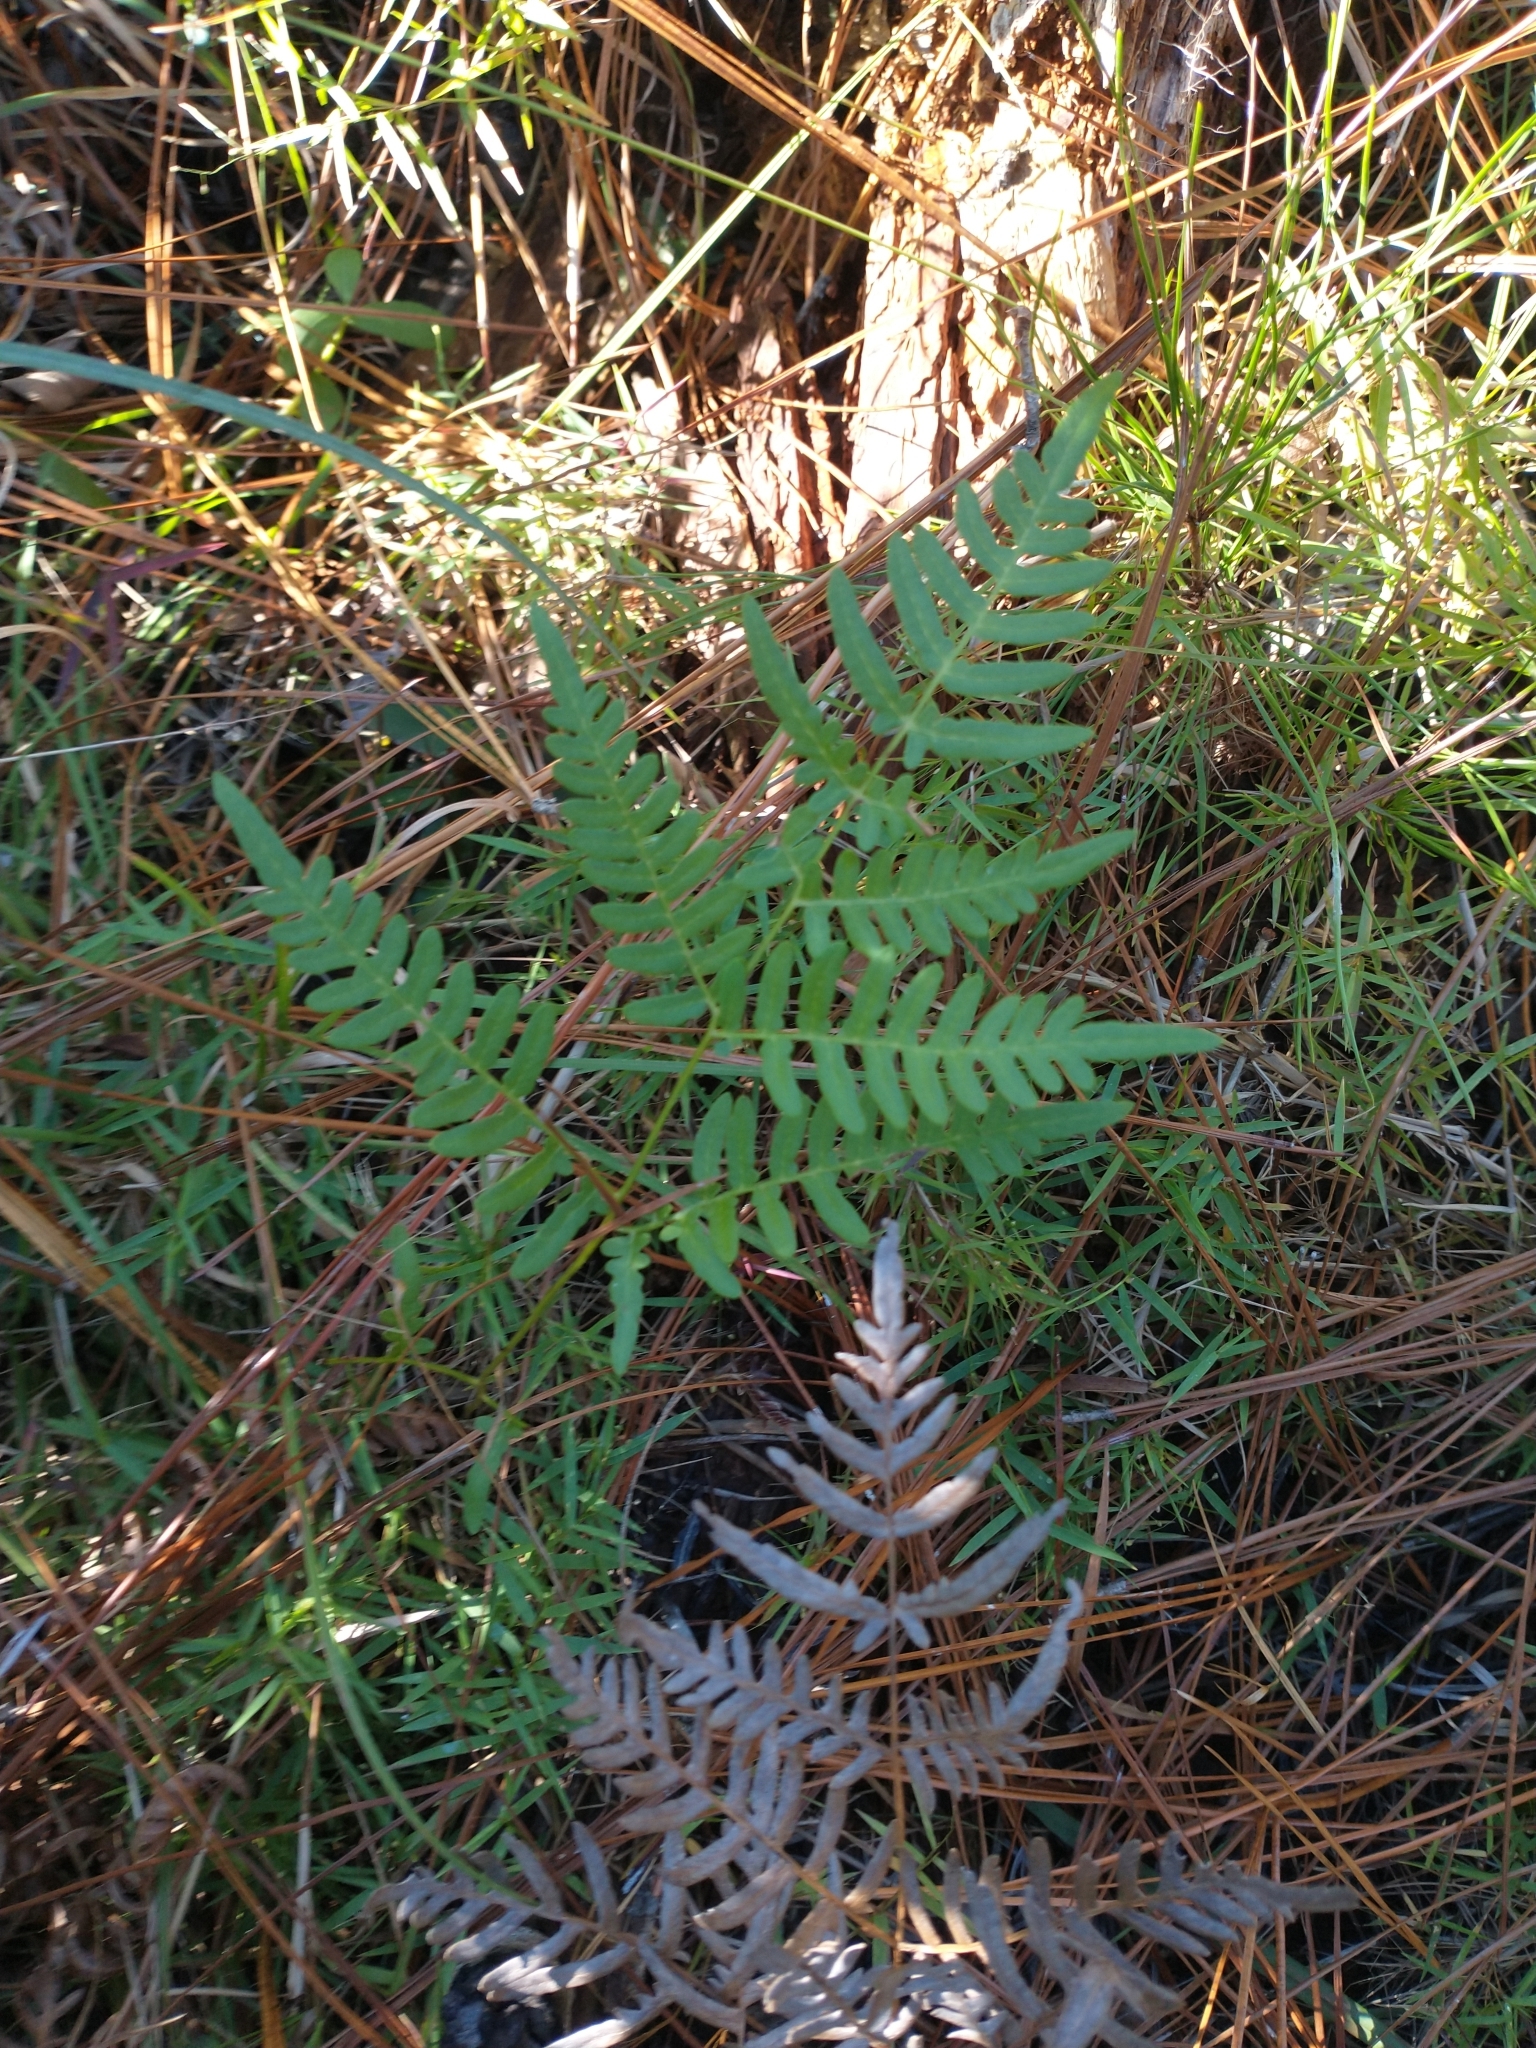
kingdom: Plantae
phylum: Tracheophyta
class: Polypodiopsida
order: Polypodiales
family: Dennstaedtiaceae
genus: Pteridium
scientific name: Pteridium aquilinum
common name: Bracken
